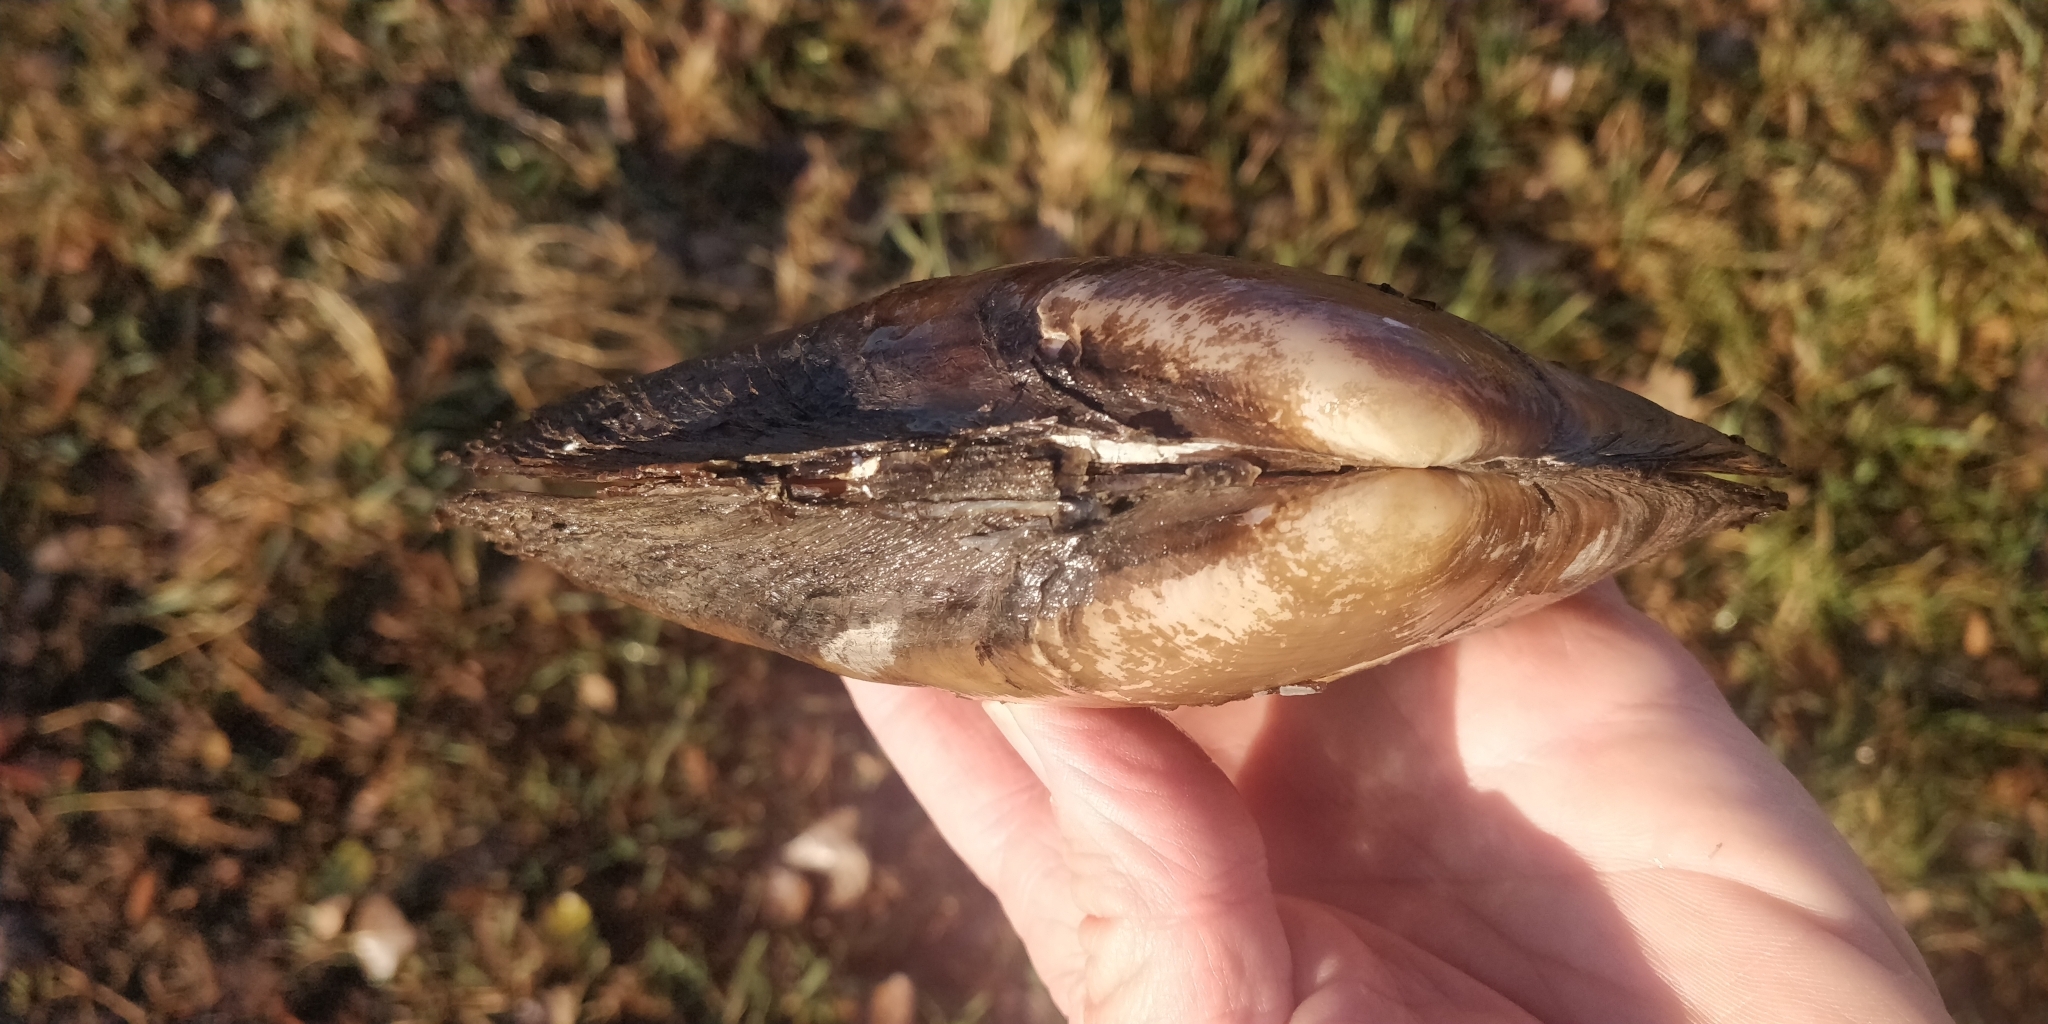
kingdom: Animalia
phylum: Mollusca
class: Bivalvia
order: Unionida
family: Unionidae
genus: Potamilus
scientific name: Potamilus fragilis
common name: Fragile papershell
